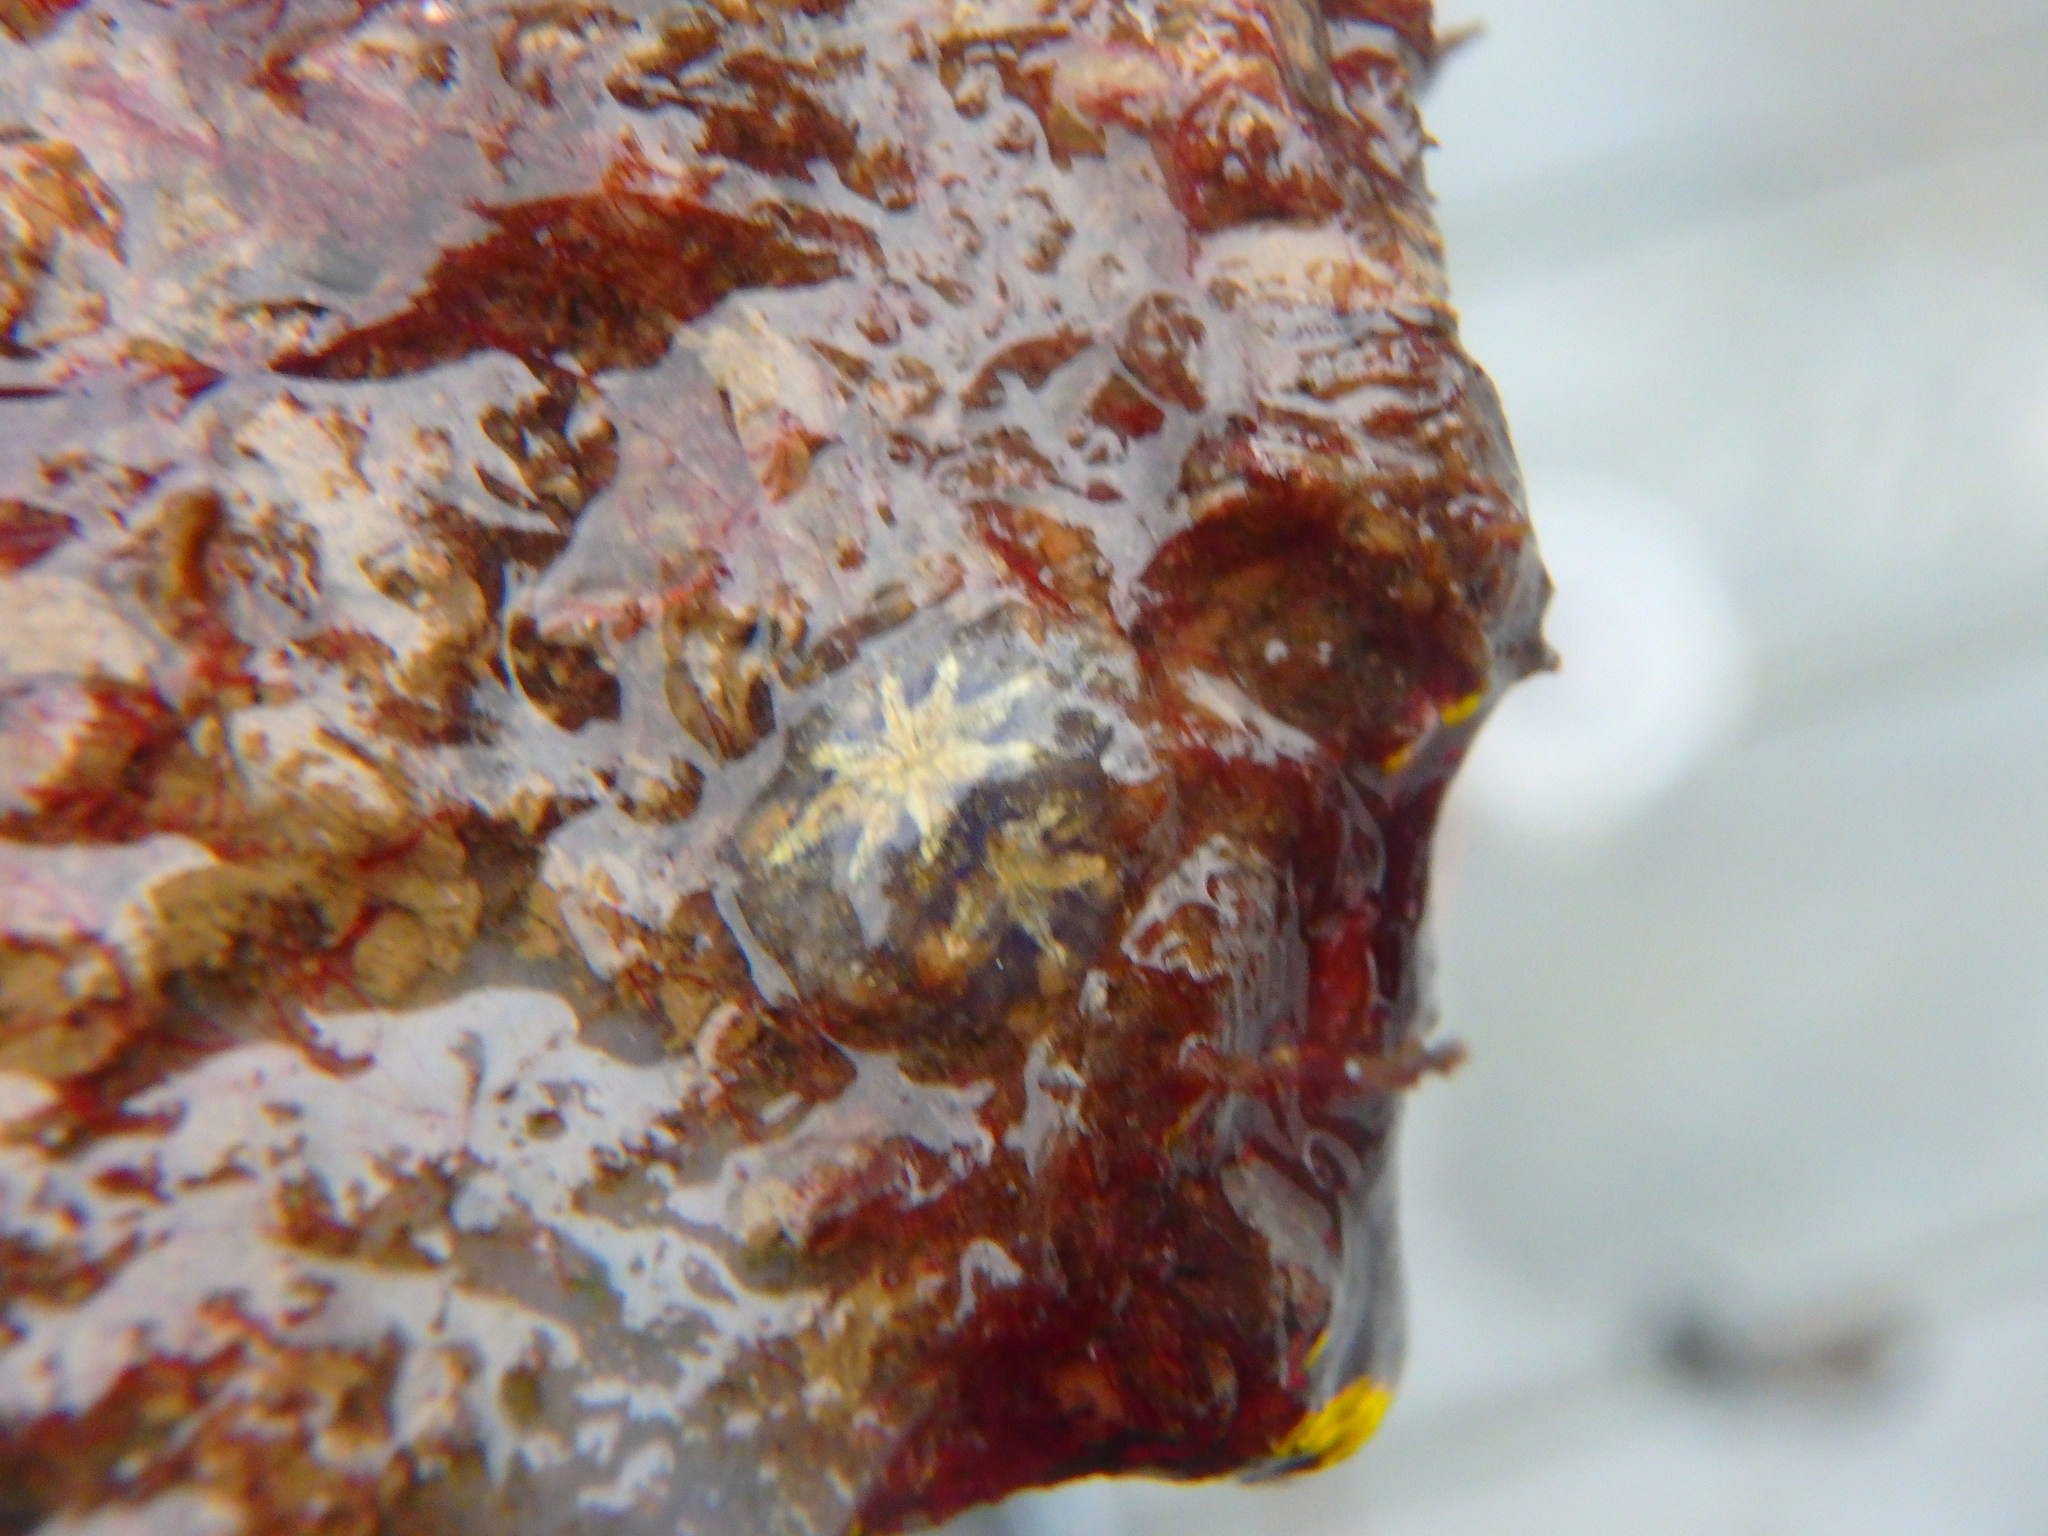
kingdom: Animalia
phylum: Chordata
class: Ascidiacea
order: Stolidobranchia
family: Styelidae
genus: Botryllus
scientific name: Botryllus schlosseri
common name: Golden star tunicate
